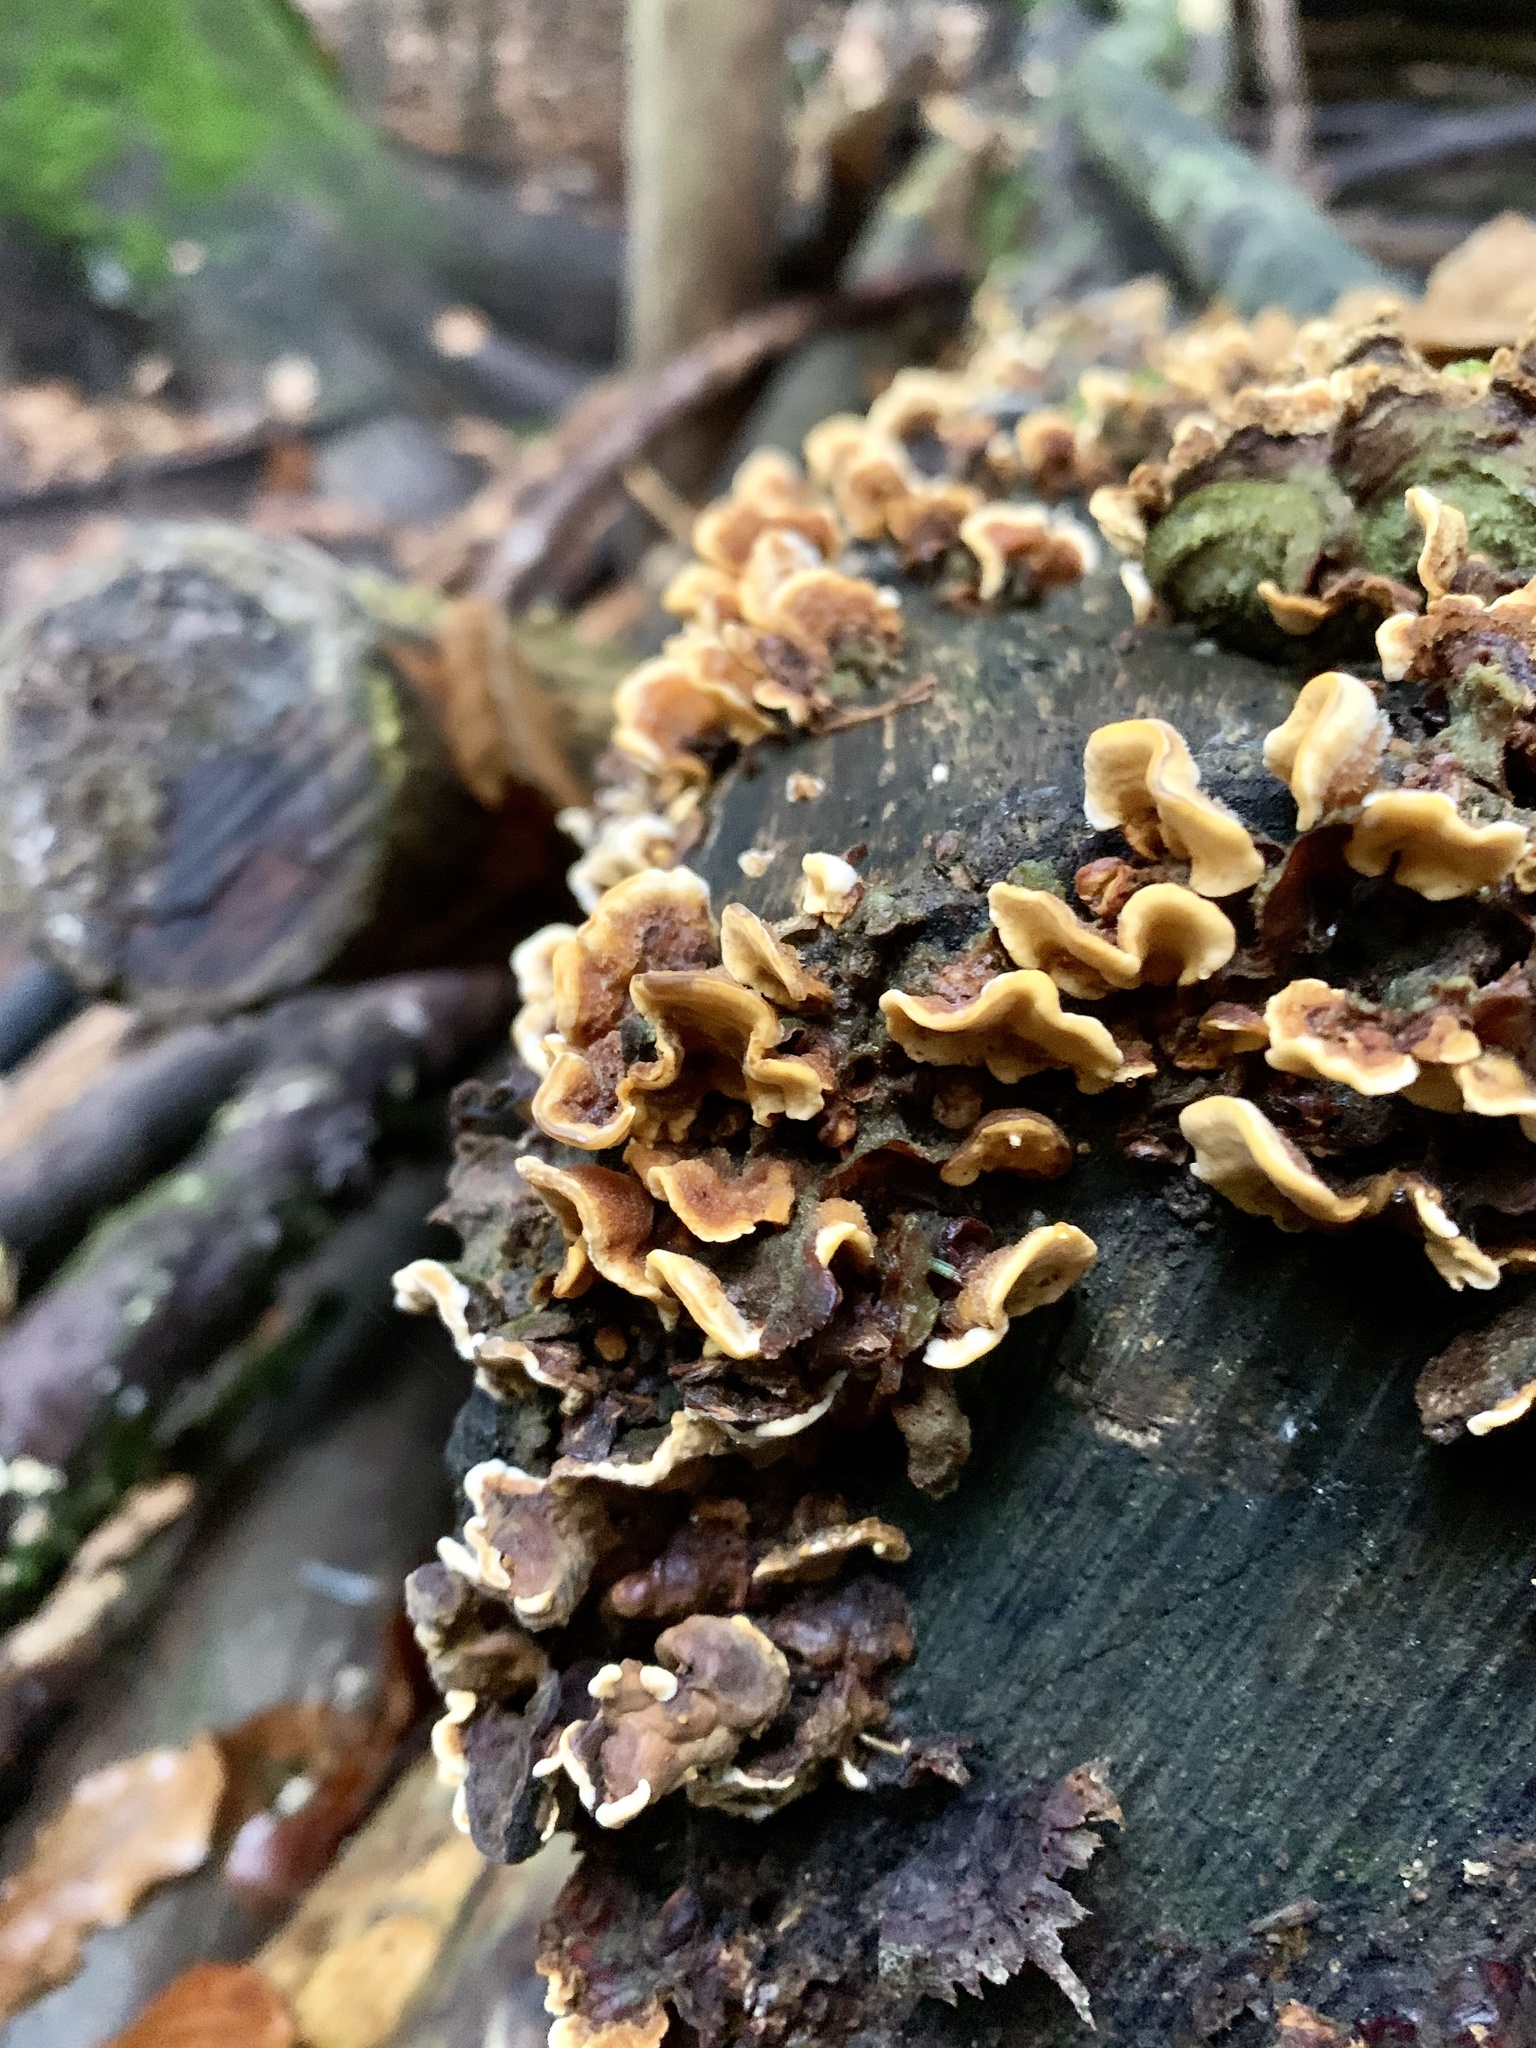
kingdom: Fungi
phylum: Basidiomycota
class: Agaricomycetes
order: Russulales
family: Stereaceae
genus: Stereum
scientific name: Stereum hirsutum
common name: Hairy curtain crust
